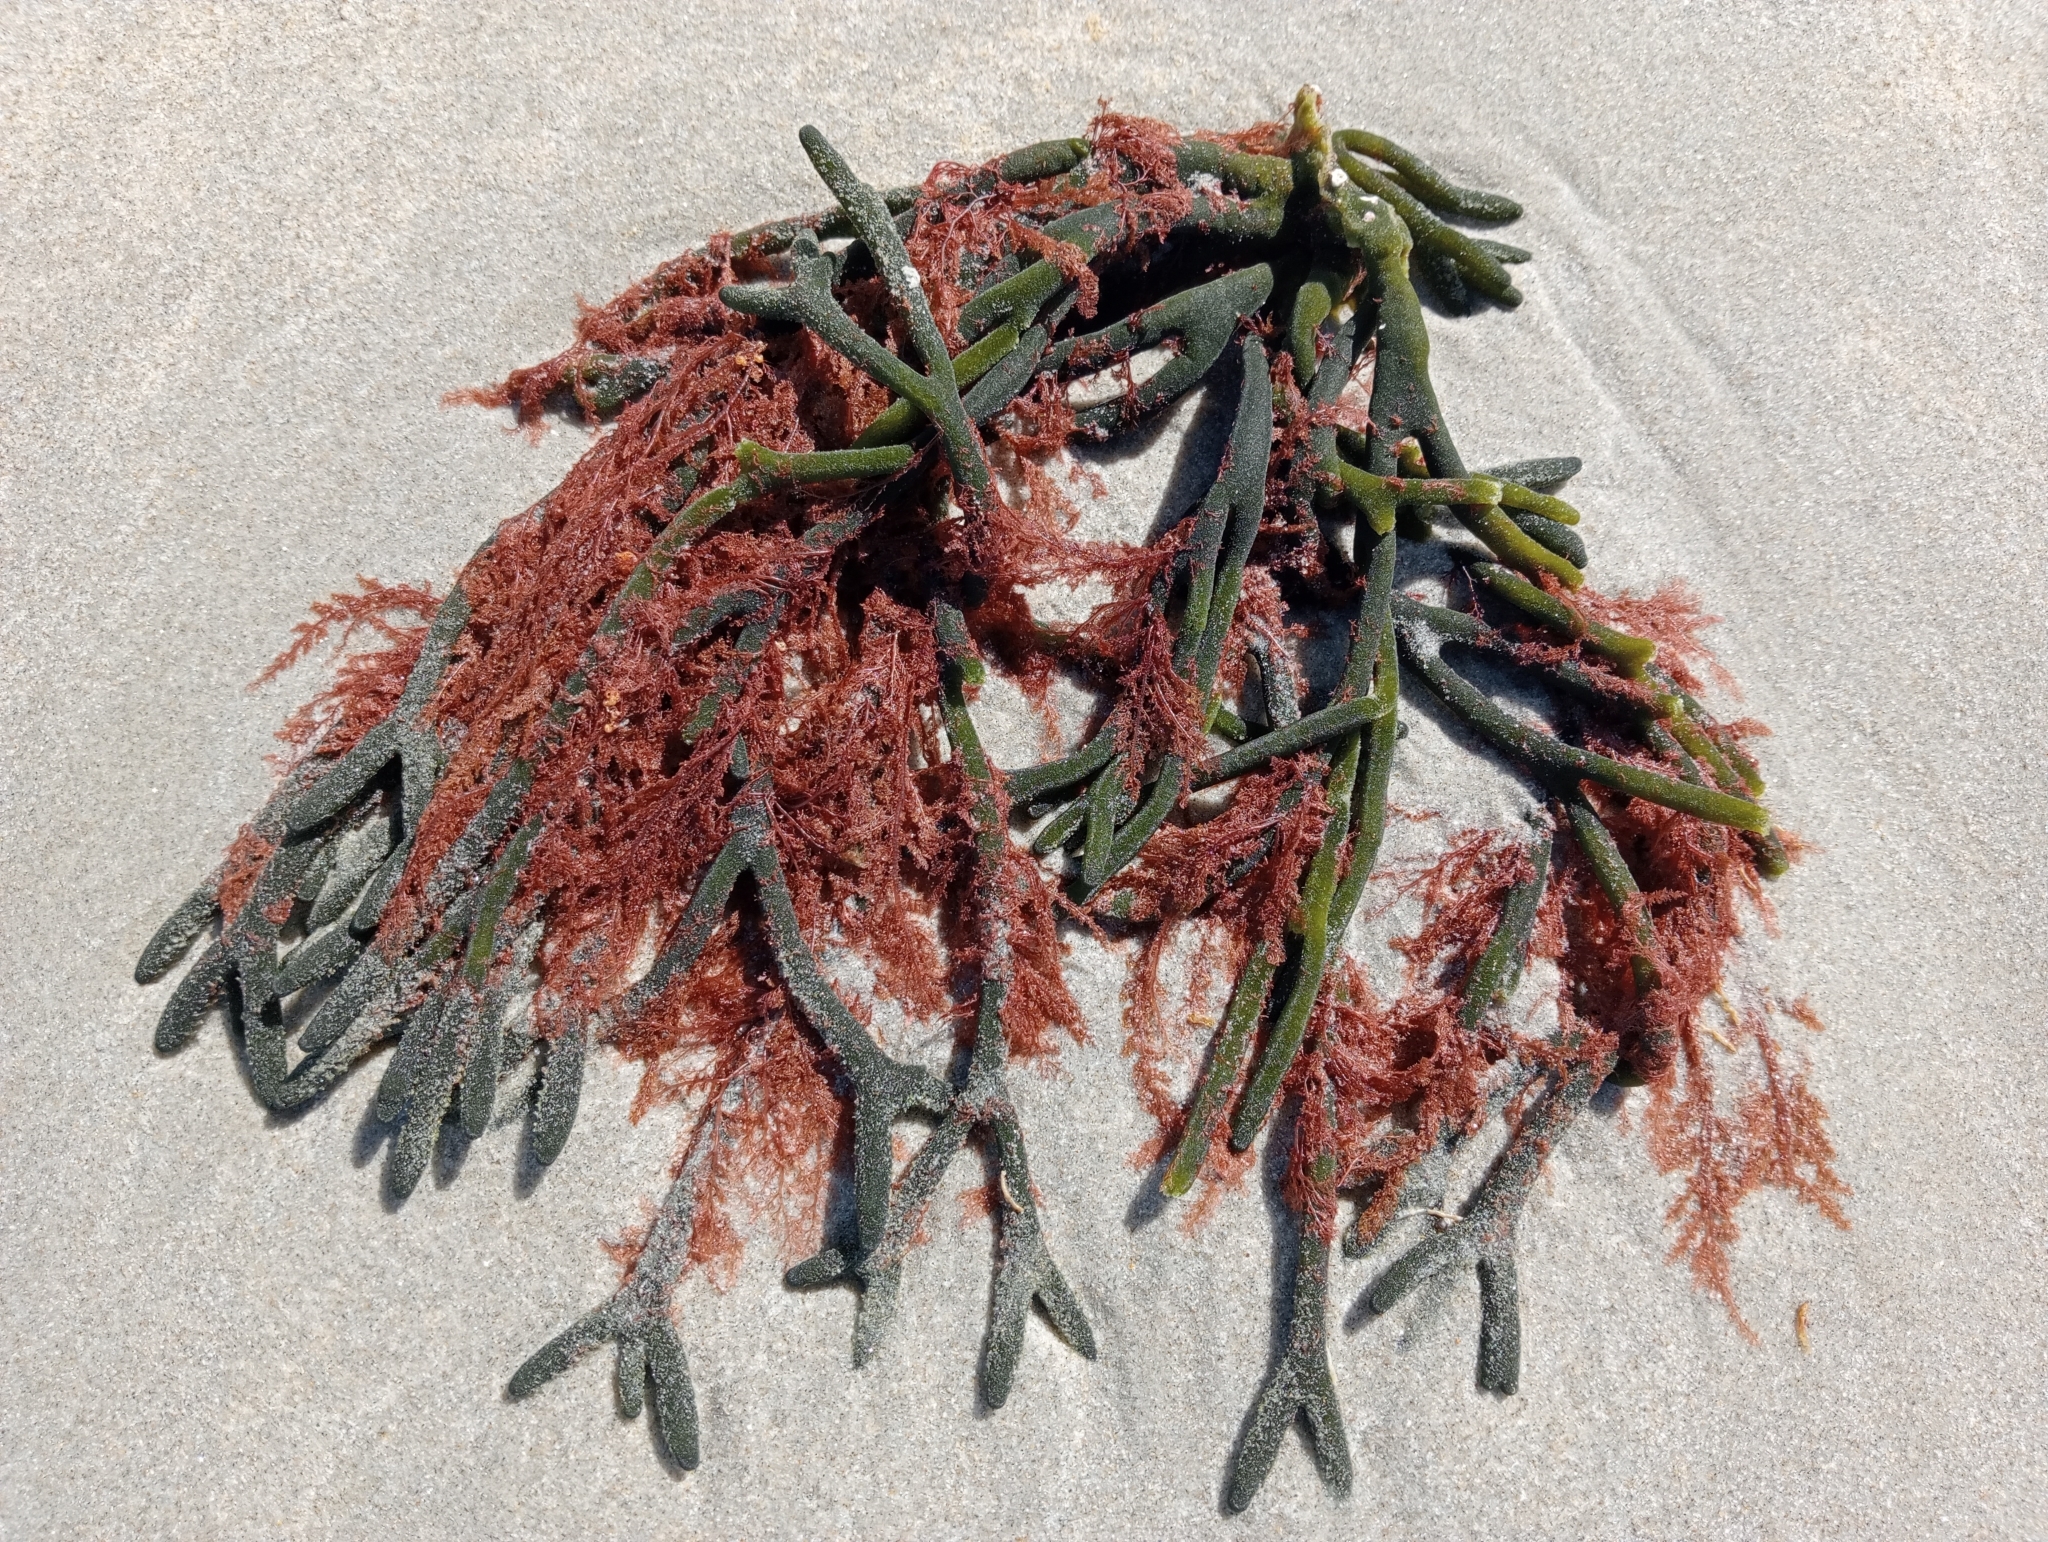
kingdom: Plantae
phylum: Chlorophyta
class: Ulvophyceae
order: Bryopsidales
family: Codiaceae
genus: Codium
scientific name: Codium fragile
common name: Dead man's fingers
